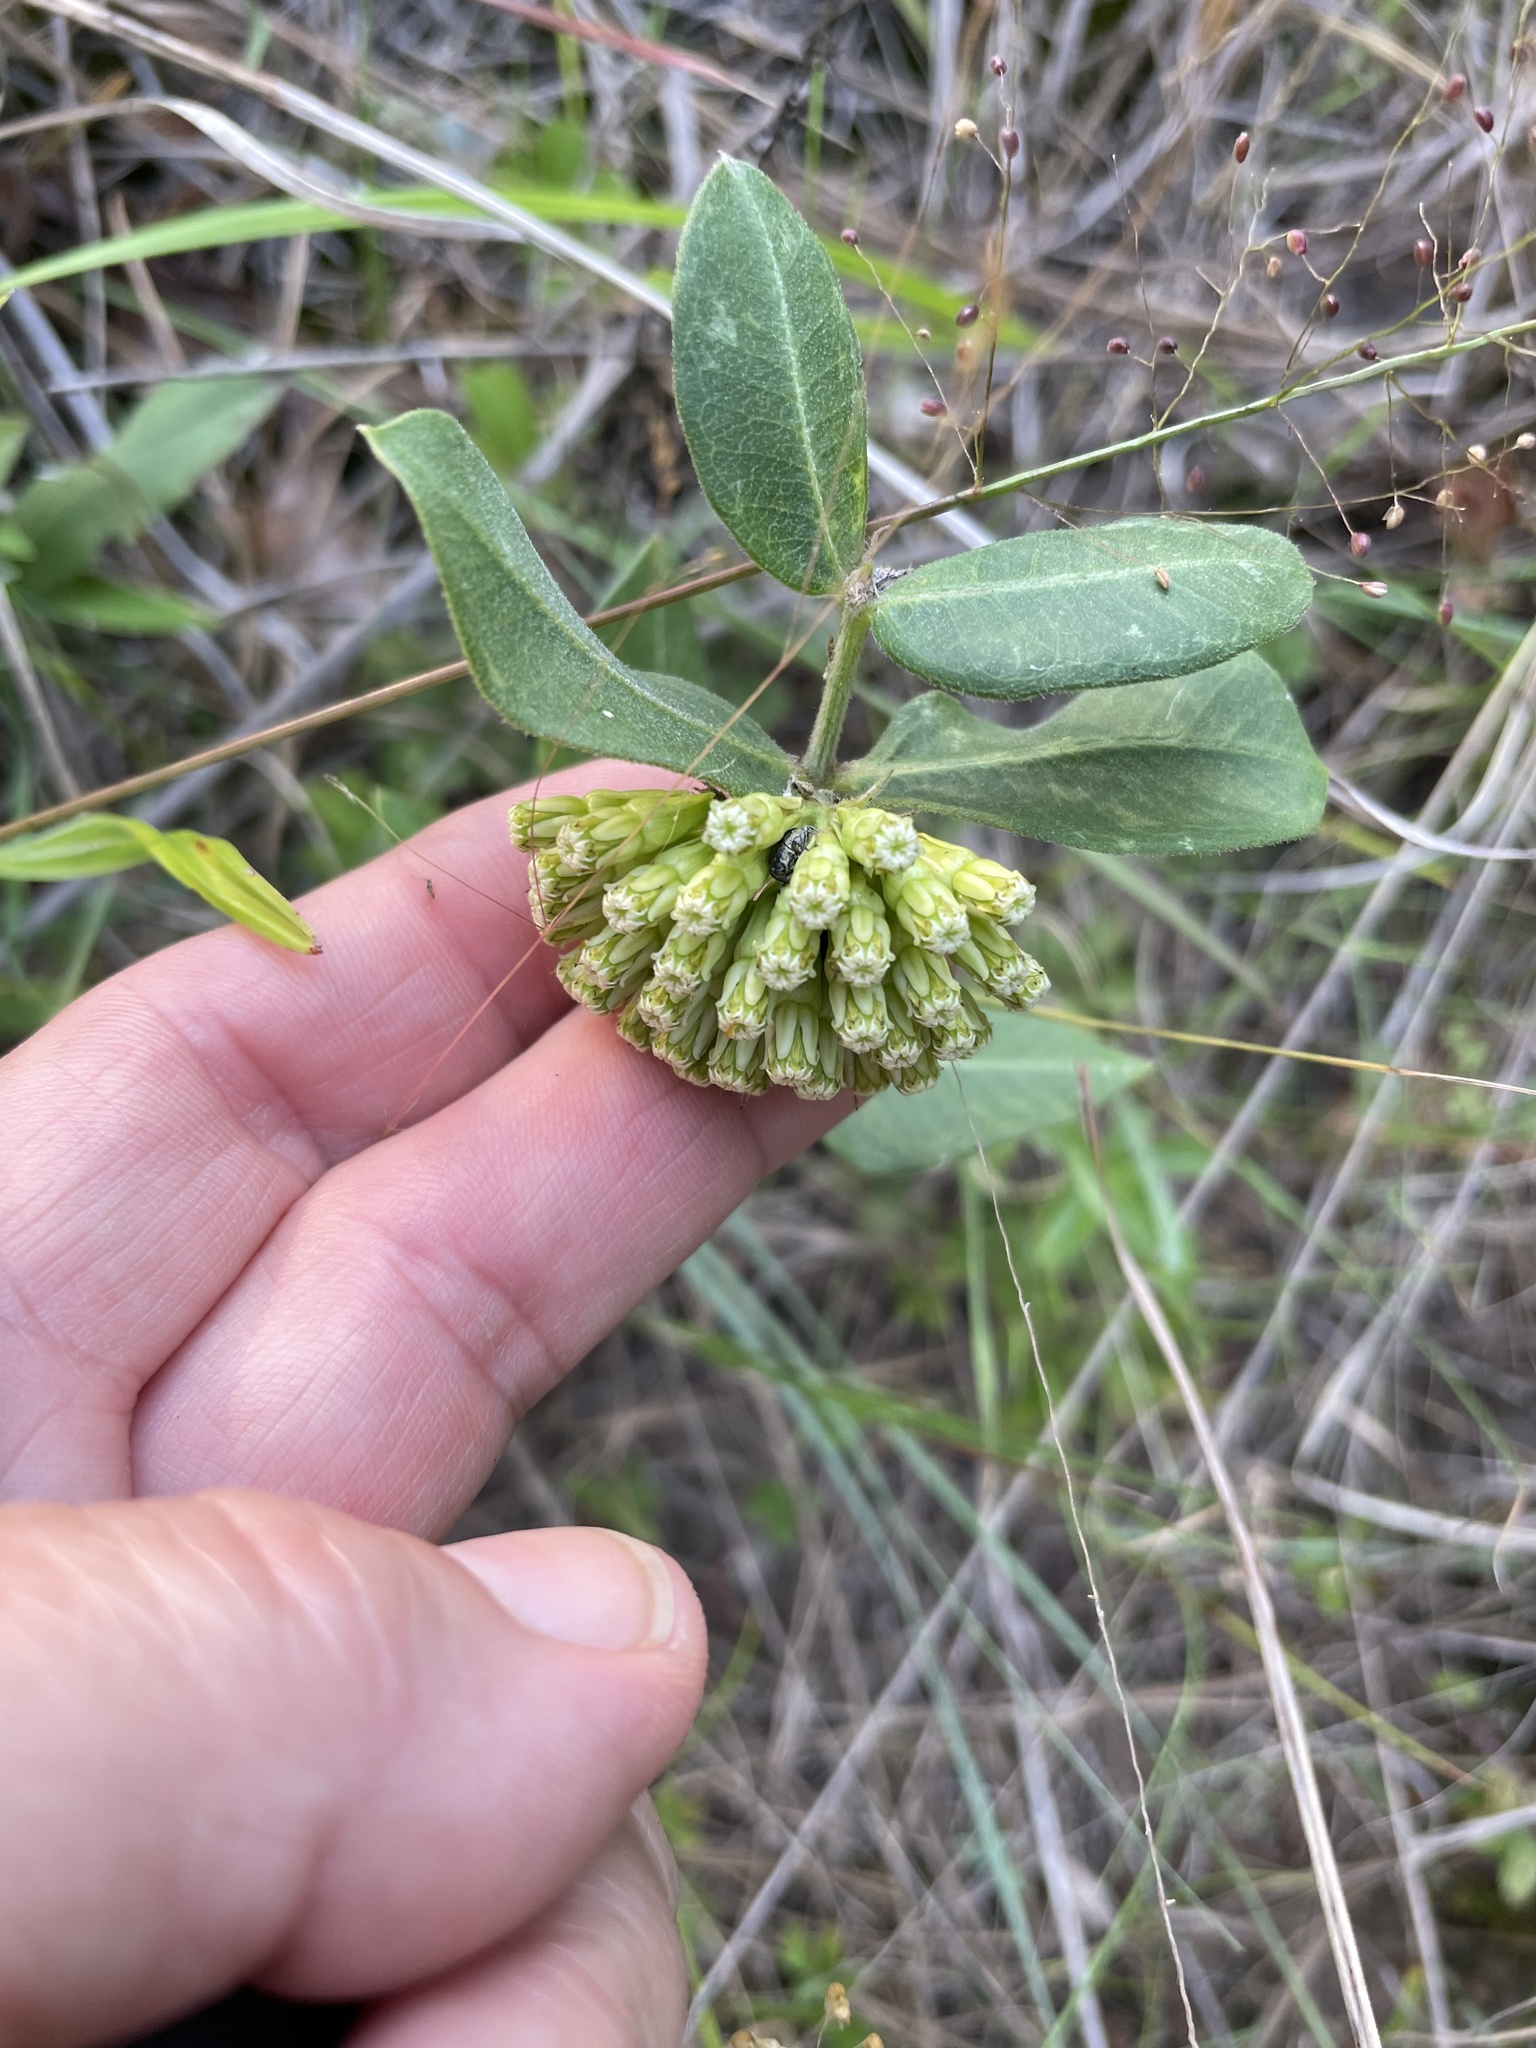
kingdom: Plantae
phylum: Tracheophyta
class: Magnoliopsida
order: Gentianales
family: Apocynaceae
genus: Asclepias
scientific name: Asclepias viridiflora
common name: Green comet milkweed
